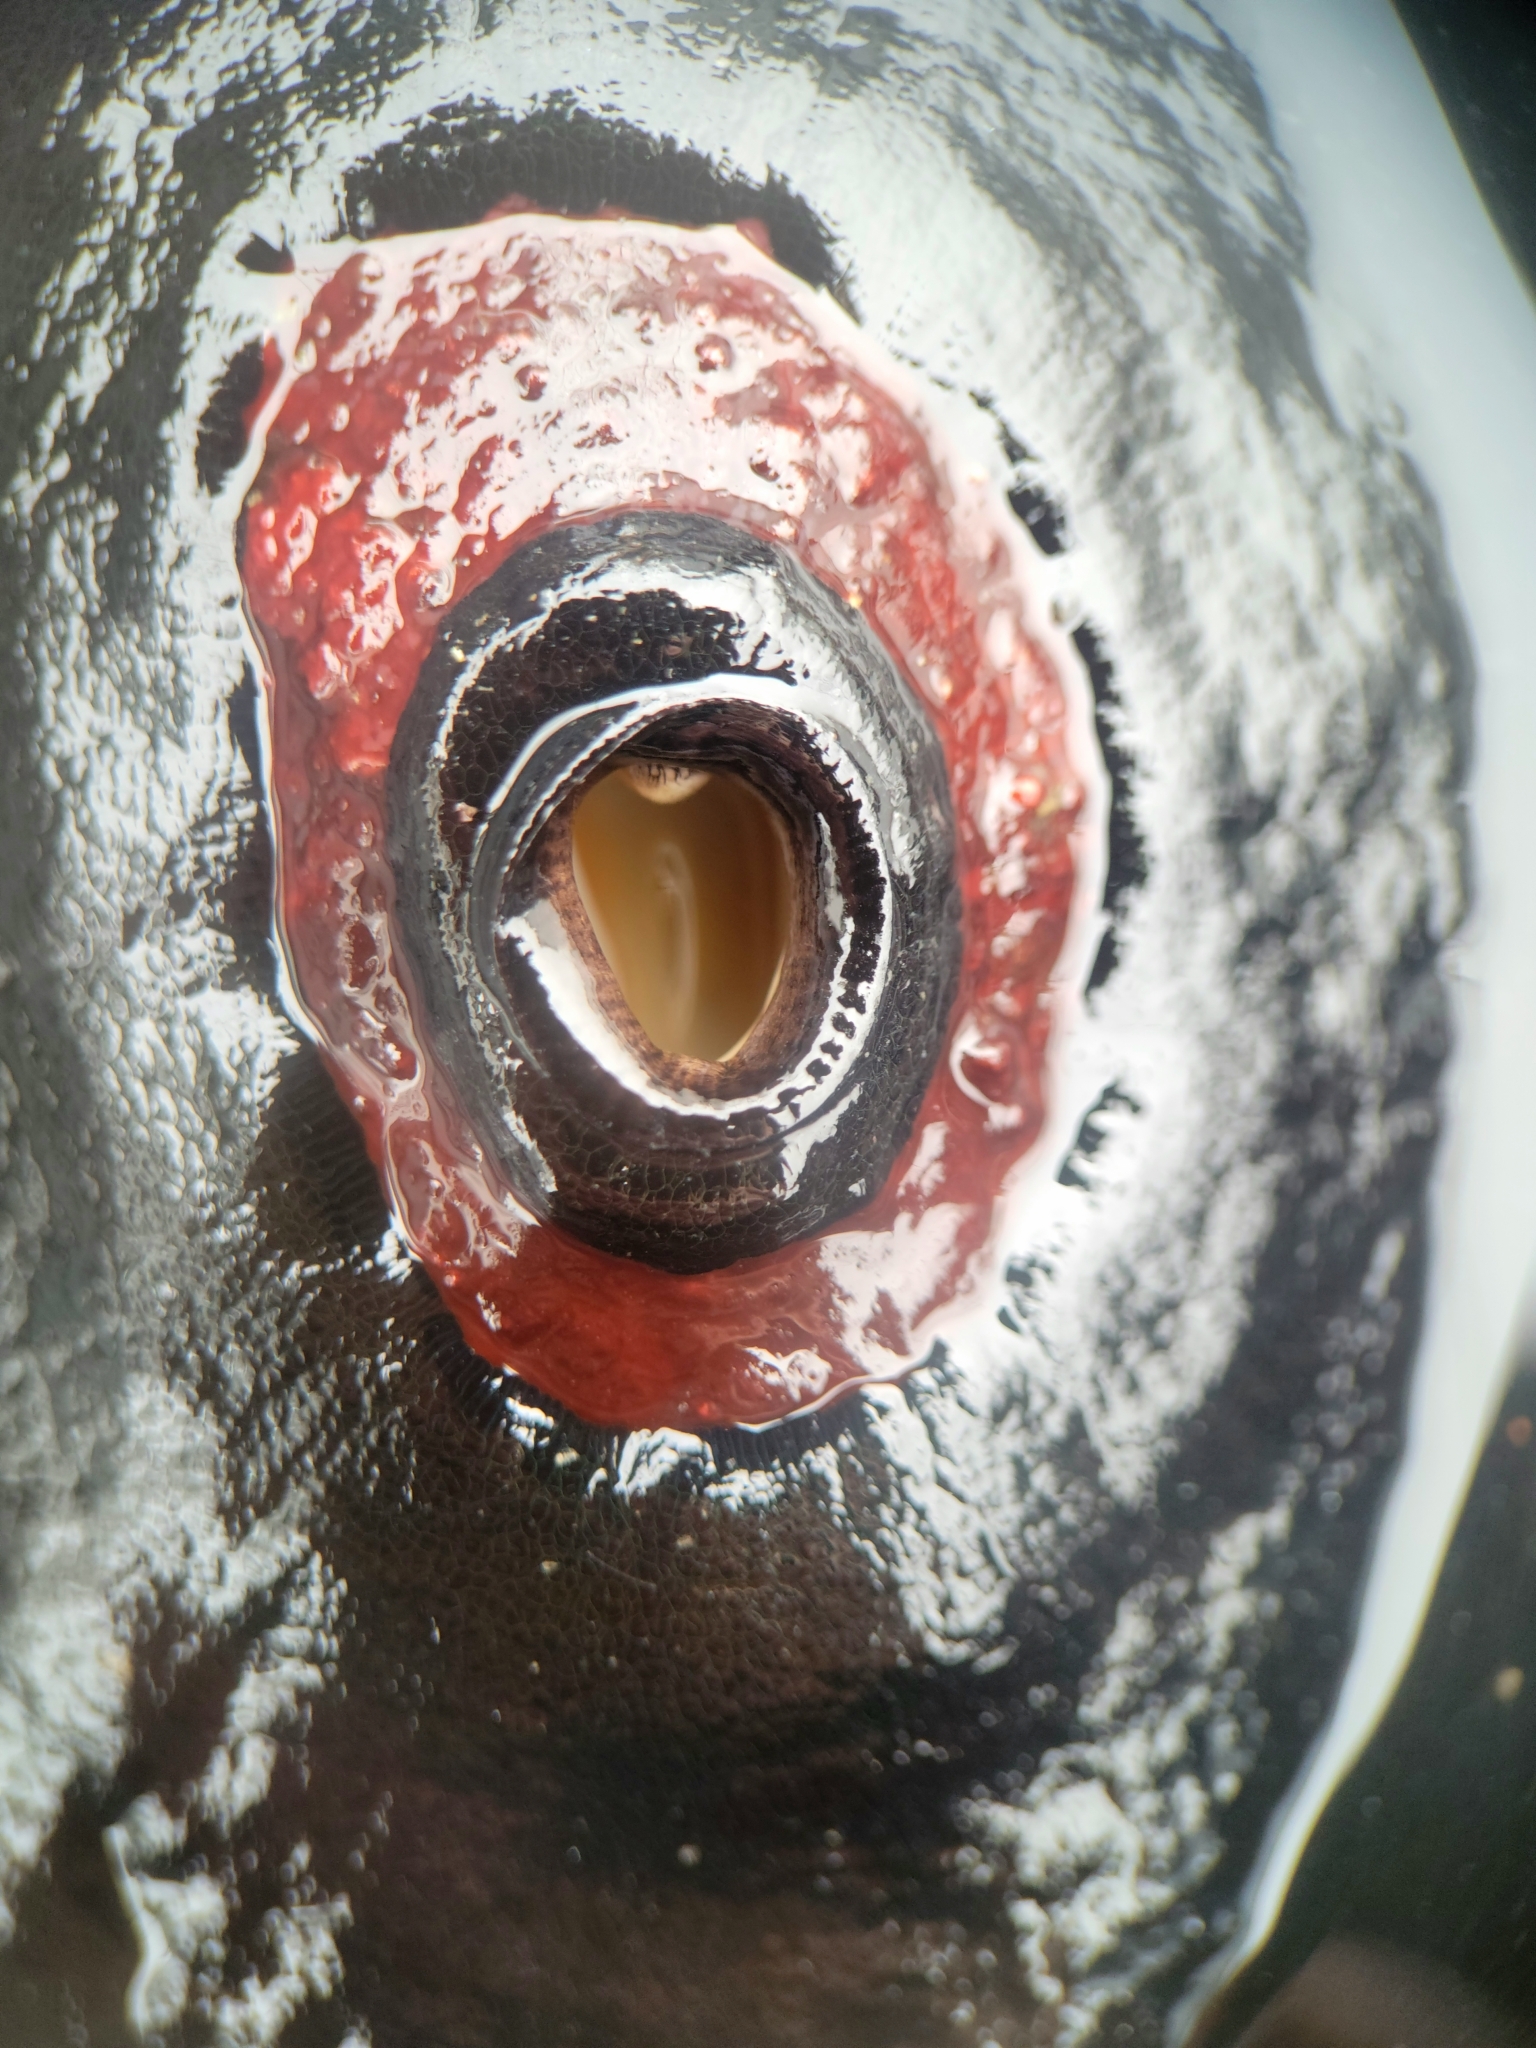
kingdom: Animalia
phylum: Mollusca
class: Gastropoda
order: Lepetellida
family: Fissurellidae
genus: Megathura
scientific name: Megathura crenulata
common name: Giant keyhole limpet
